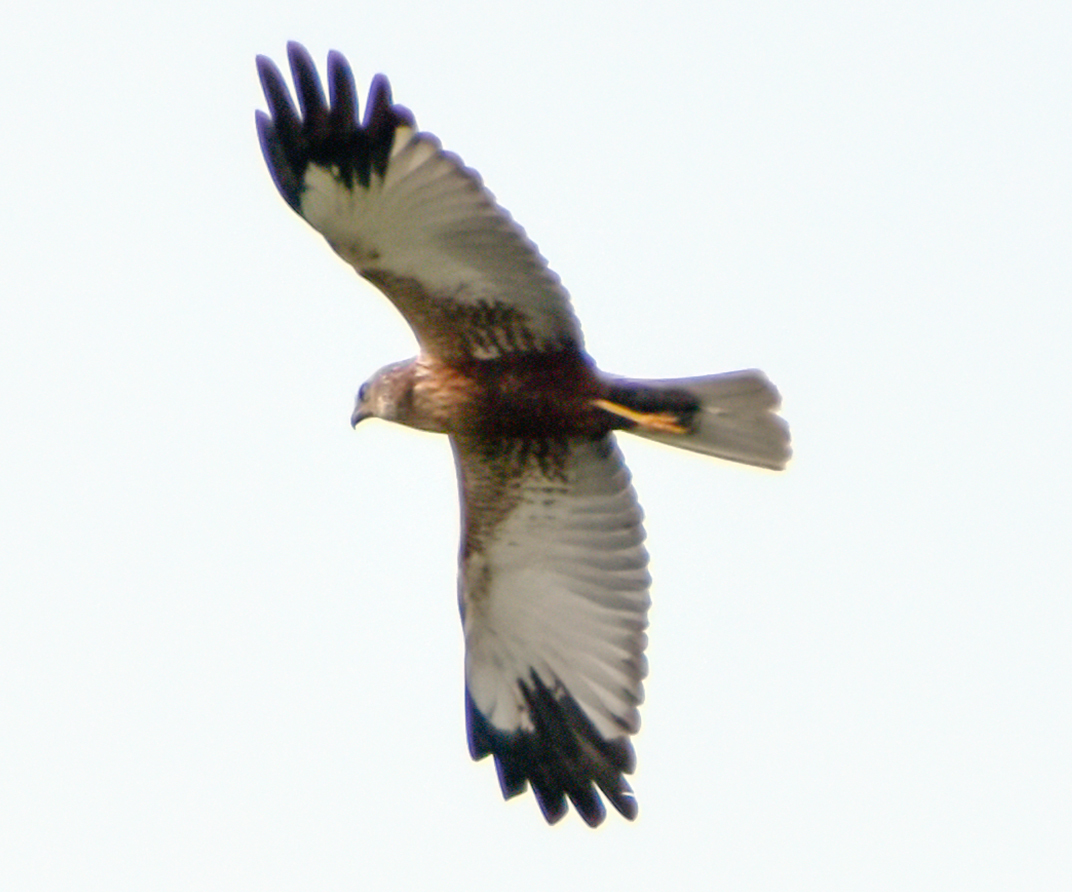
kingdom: Animalia
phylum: Chordata
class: Aves
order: Accipitriformes
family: Accipitridae
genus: Circus
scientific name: Circus aeruginosus
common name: Western marsh harrier
